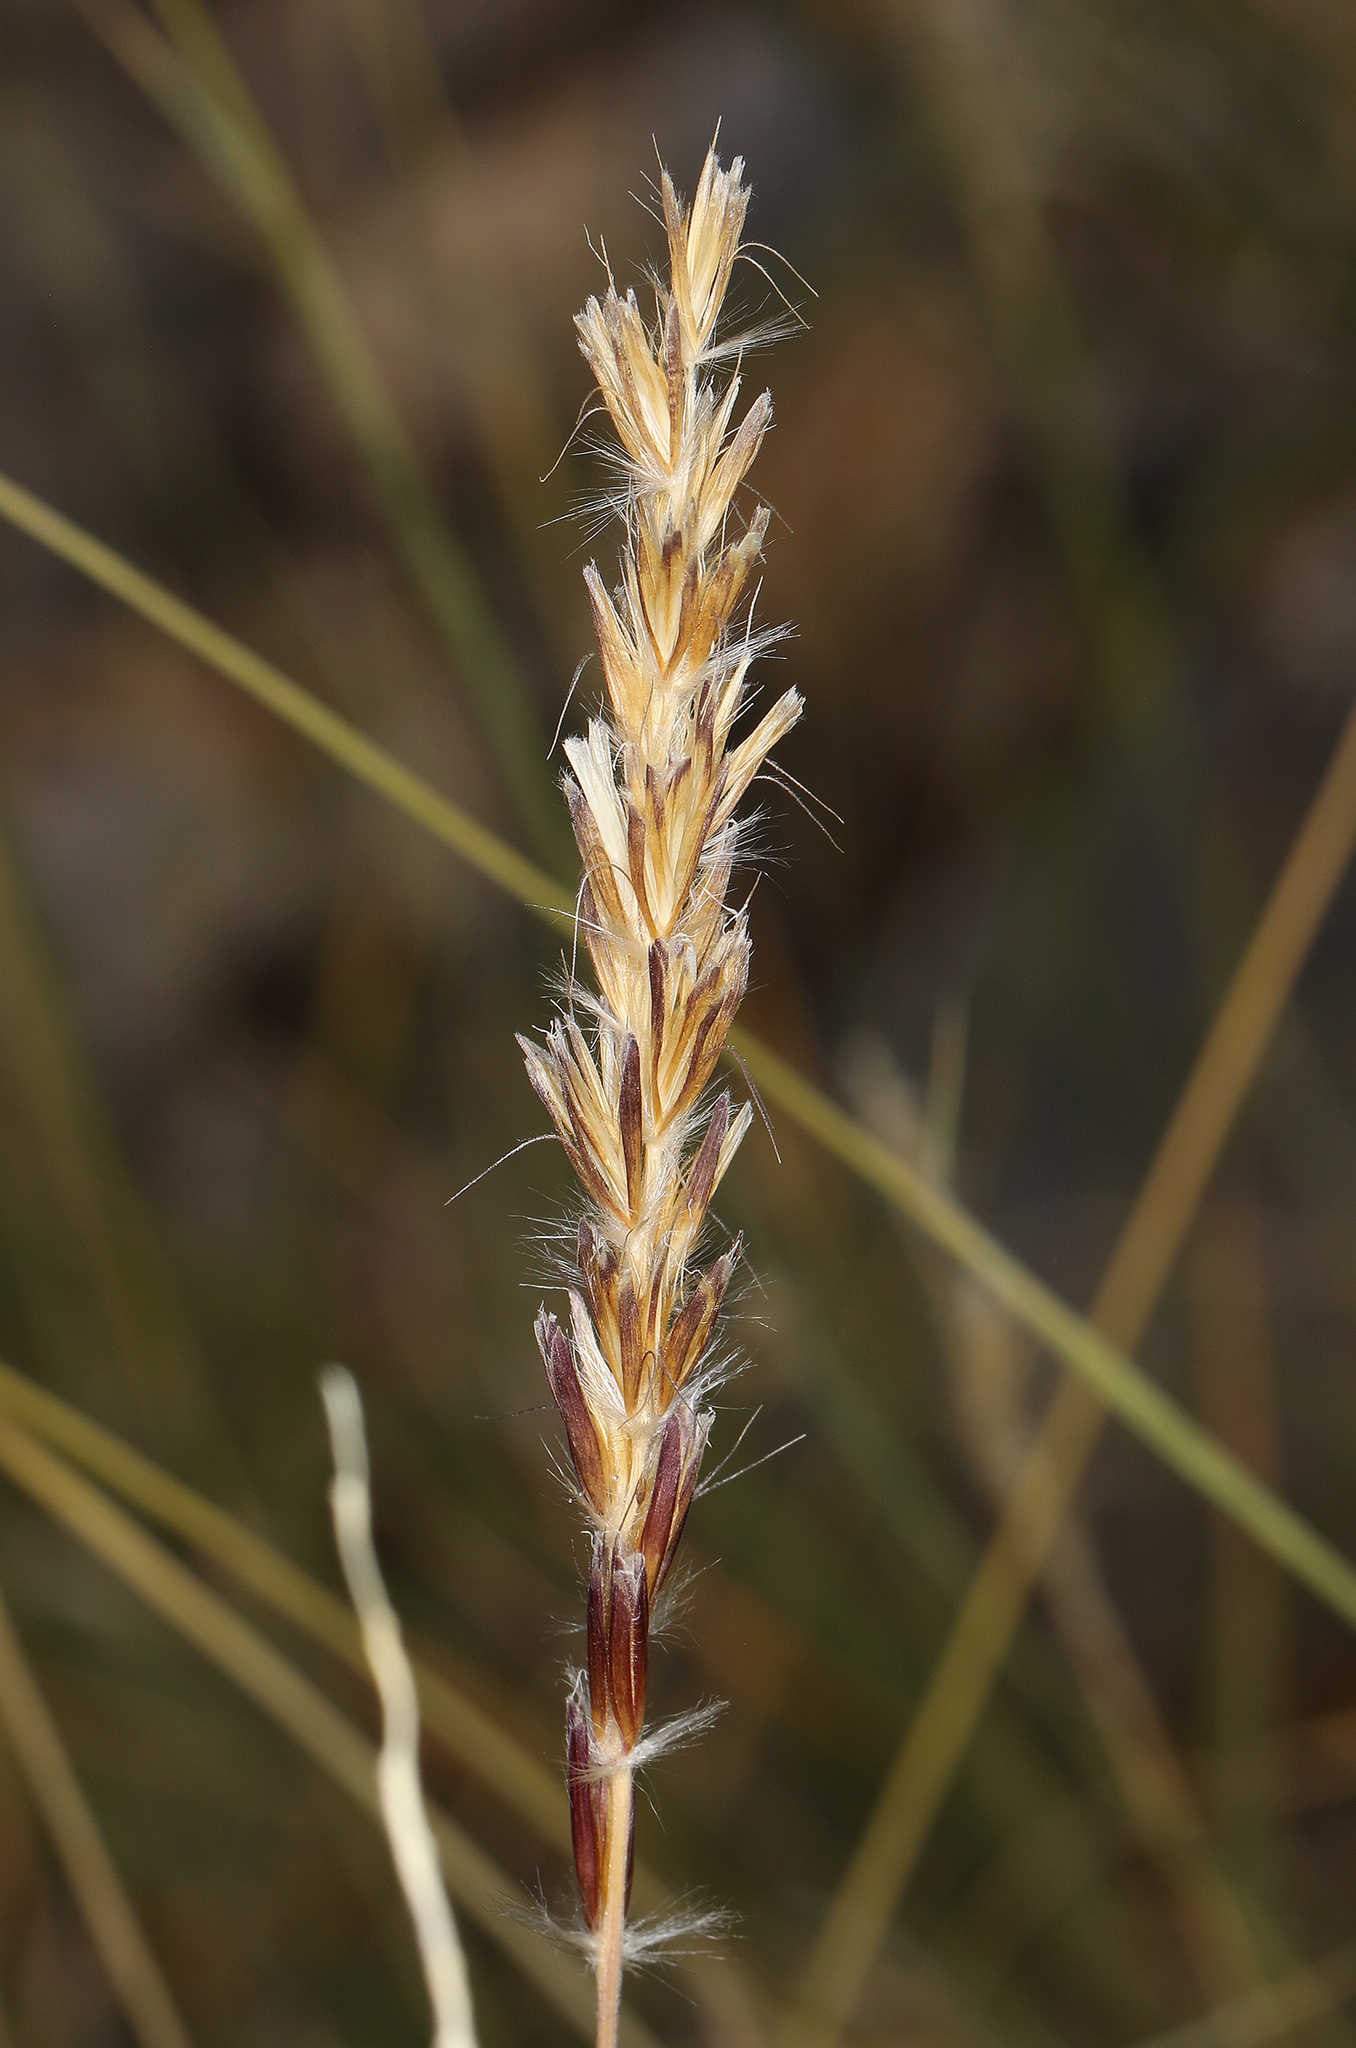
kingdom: Plantae
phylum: Tracheophyta
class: Liliopsida
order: Poales
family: Poaceae
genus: Hilaria
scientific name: Hilaria jamesii
